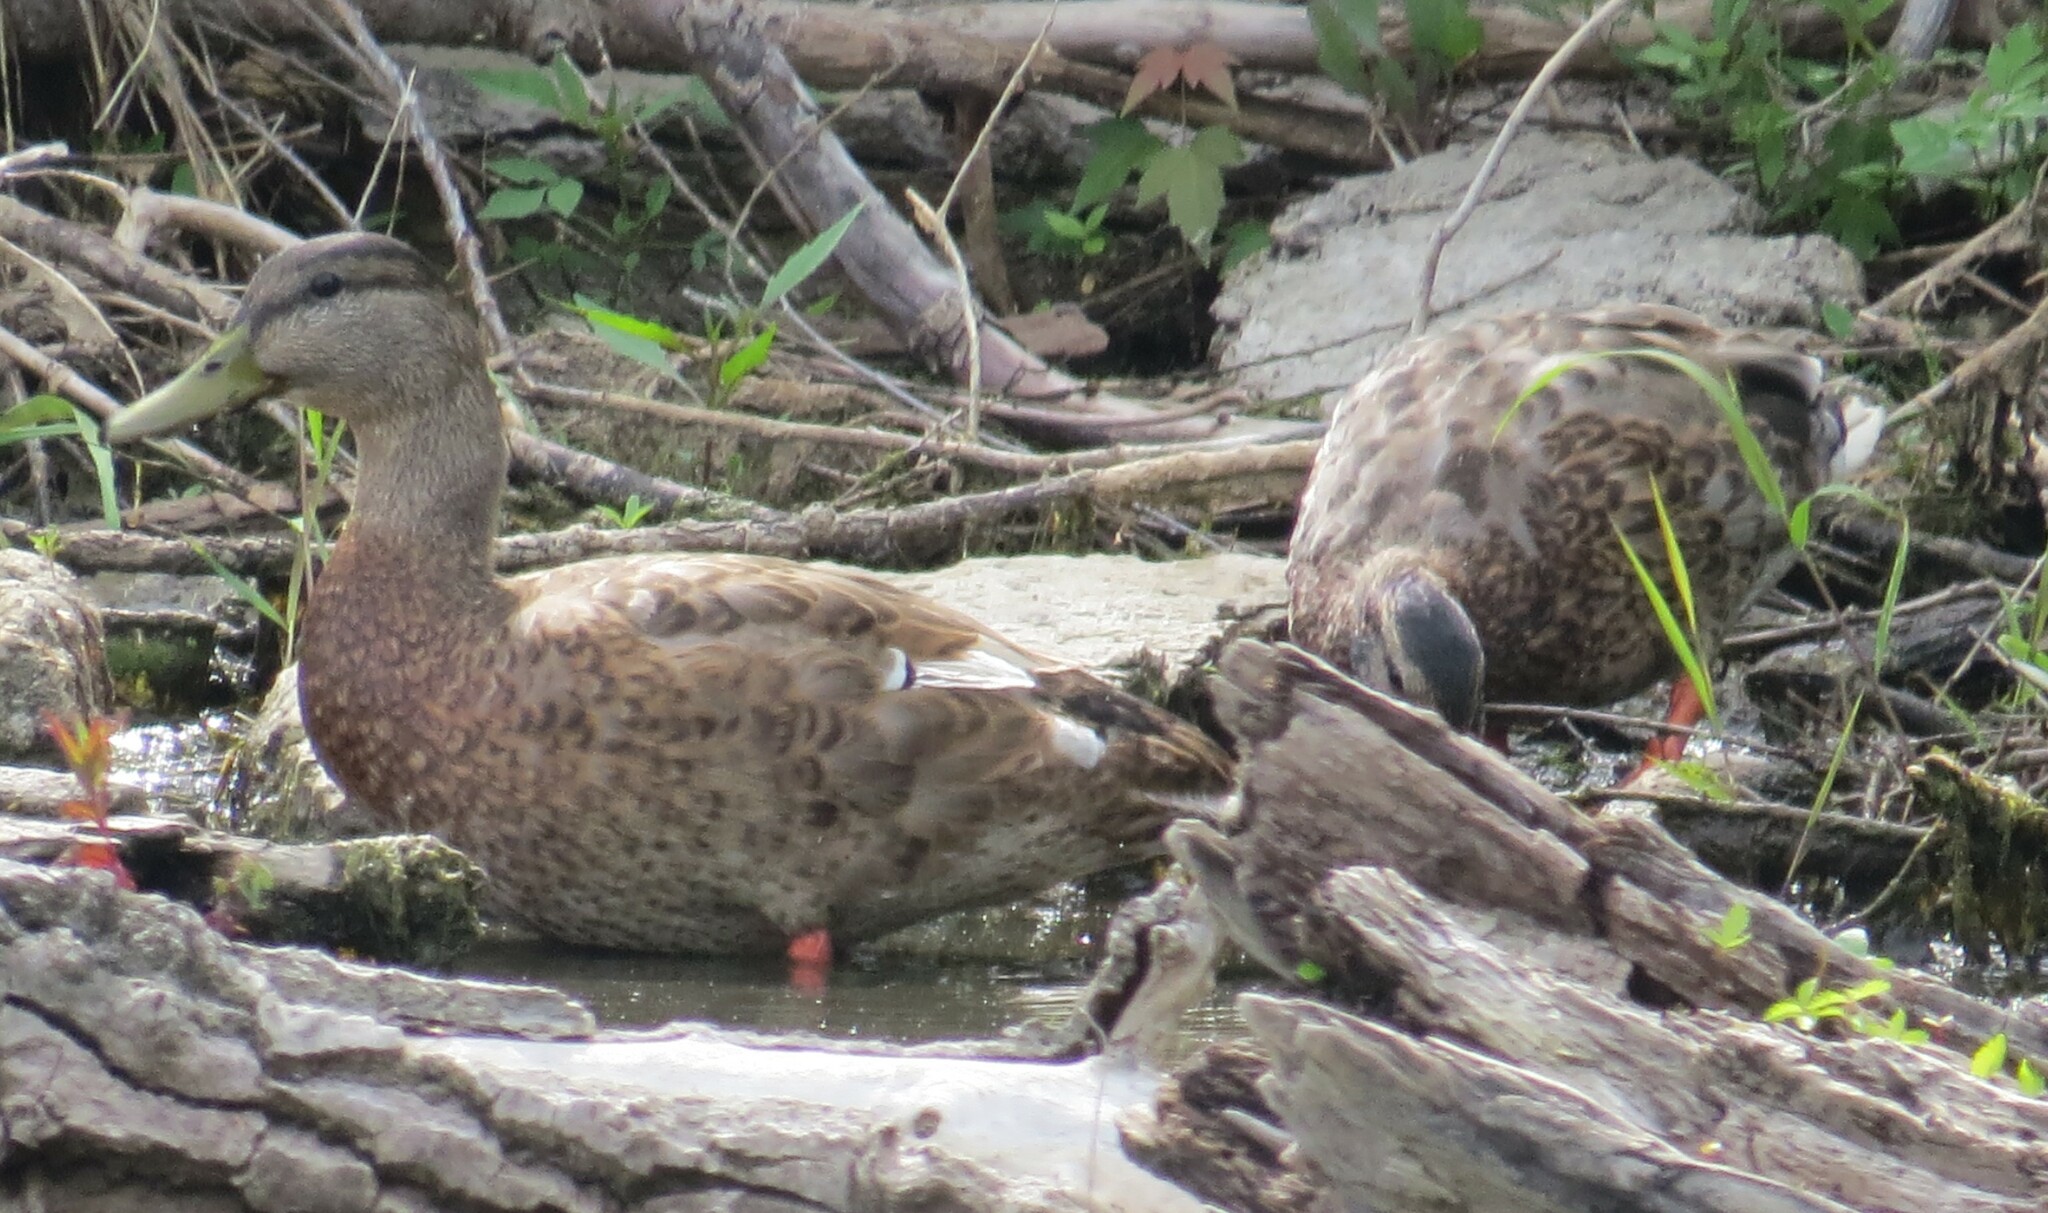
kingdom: Animalia
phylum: Chordata
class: Aves
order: Anseriformes
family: Anatidae
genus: Anas
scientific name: Anas platyrhynchos
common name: Mallard
